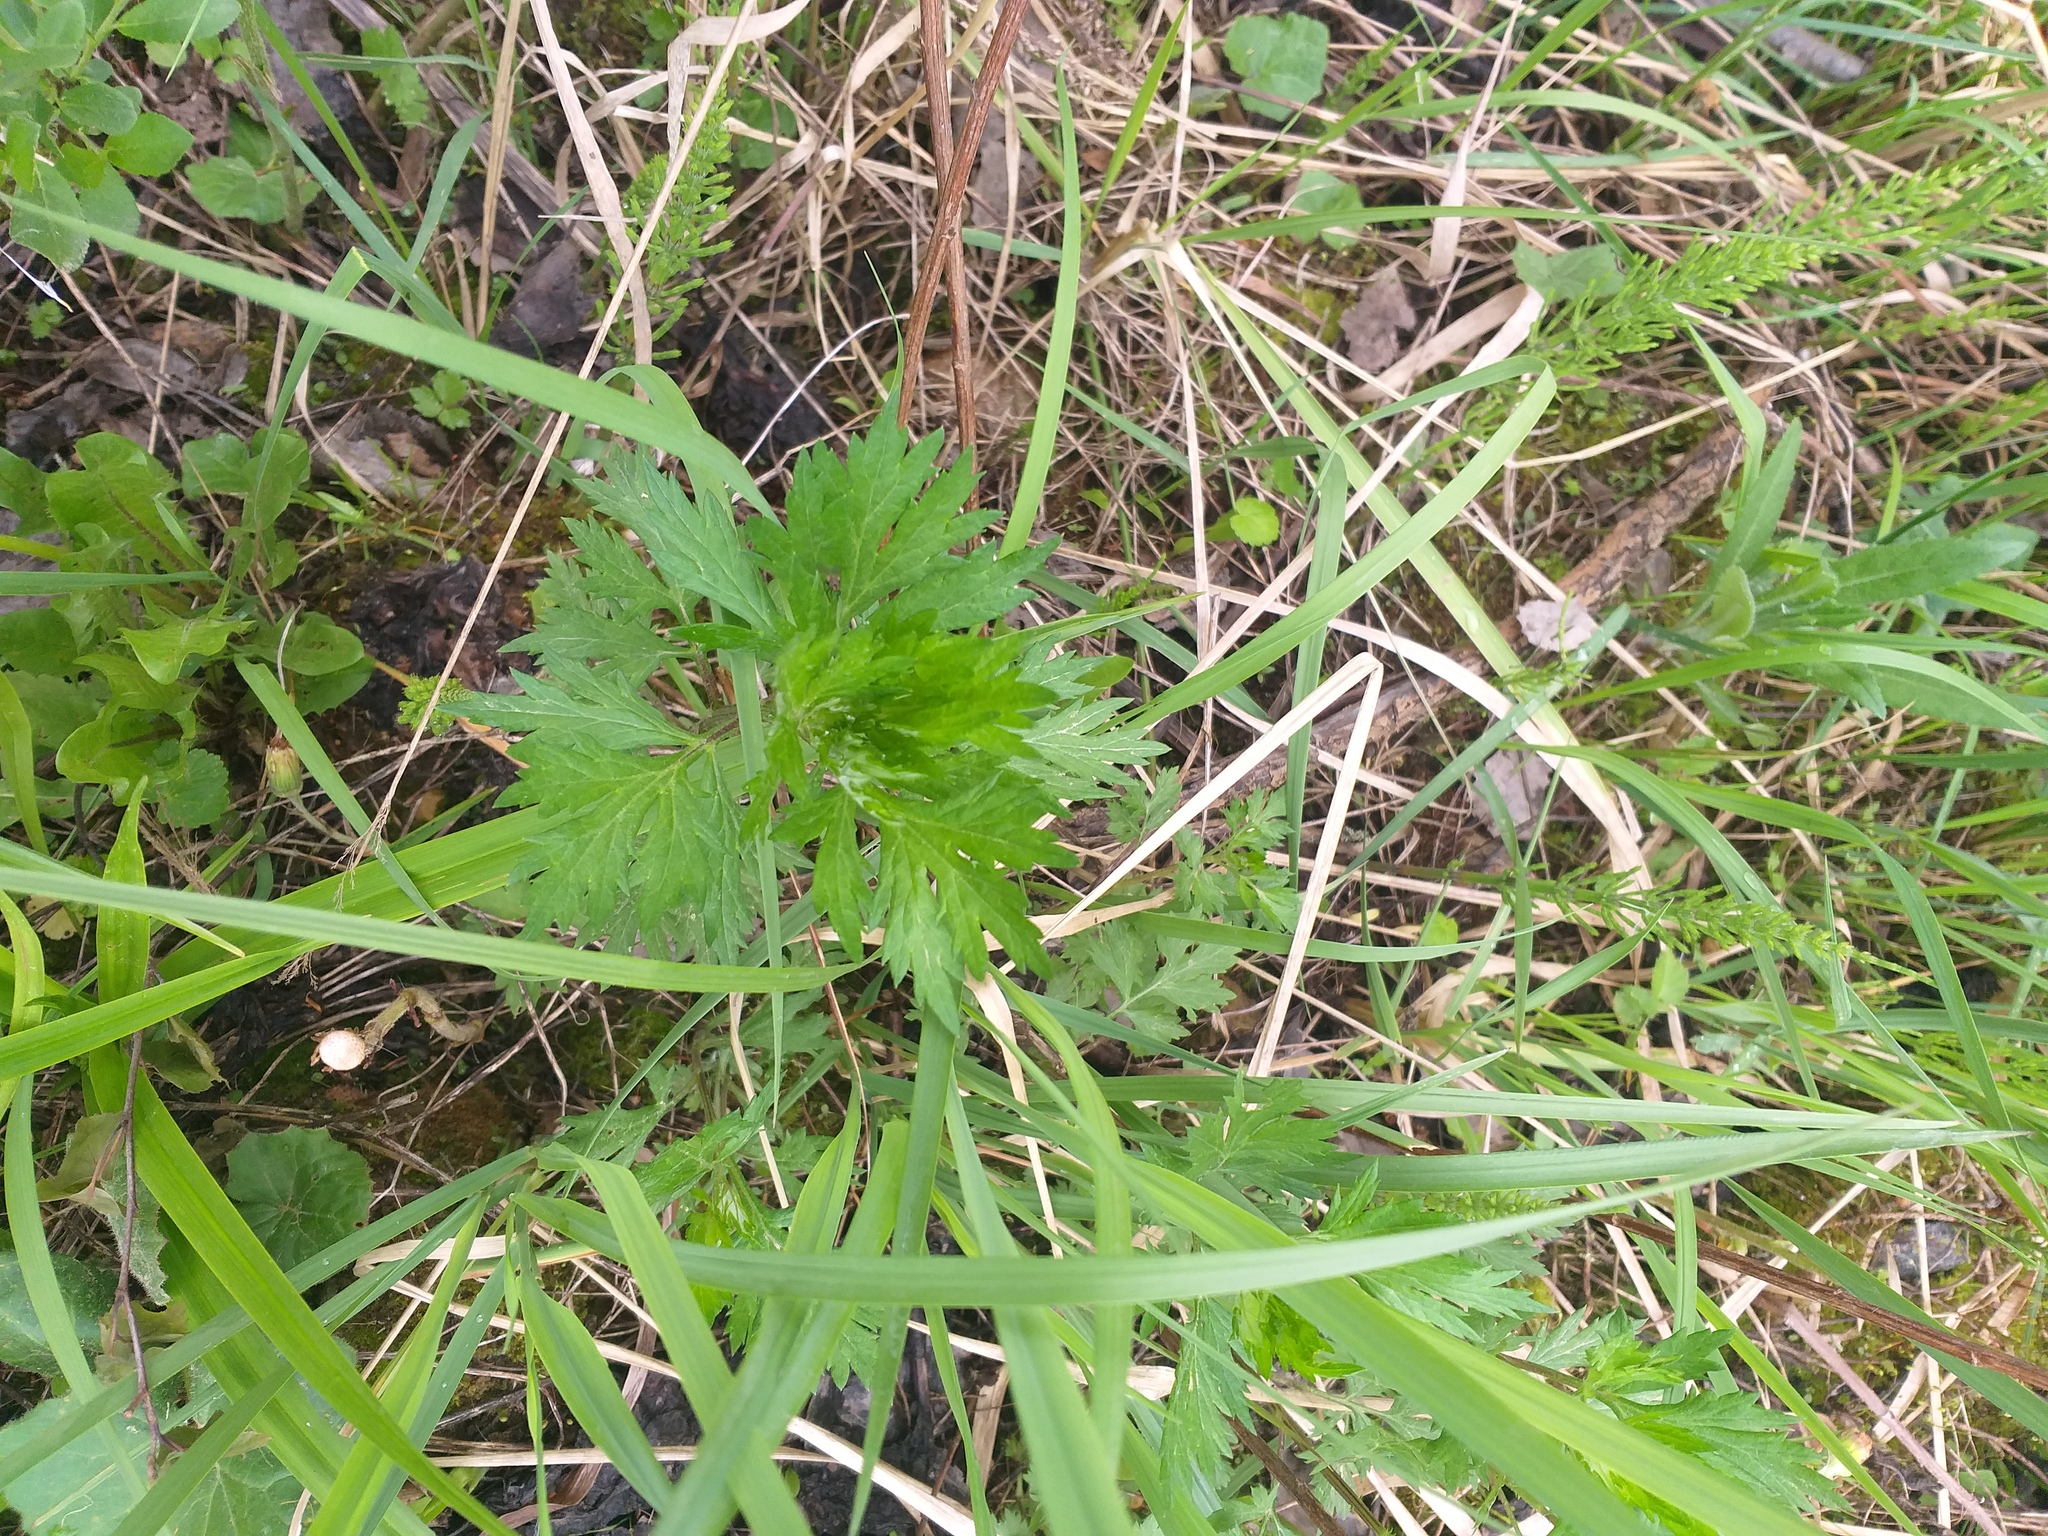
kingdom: Plantae
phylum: Tracheophyta
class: Magnoliopsida
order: Asterales
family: Asteraceae
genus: Artemisia
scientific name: Artemisia vulgaris
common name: Mugwort
